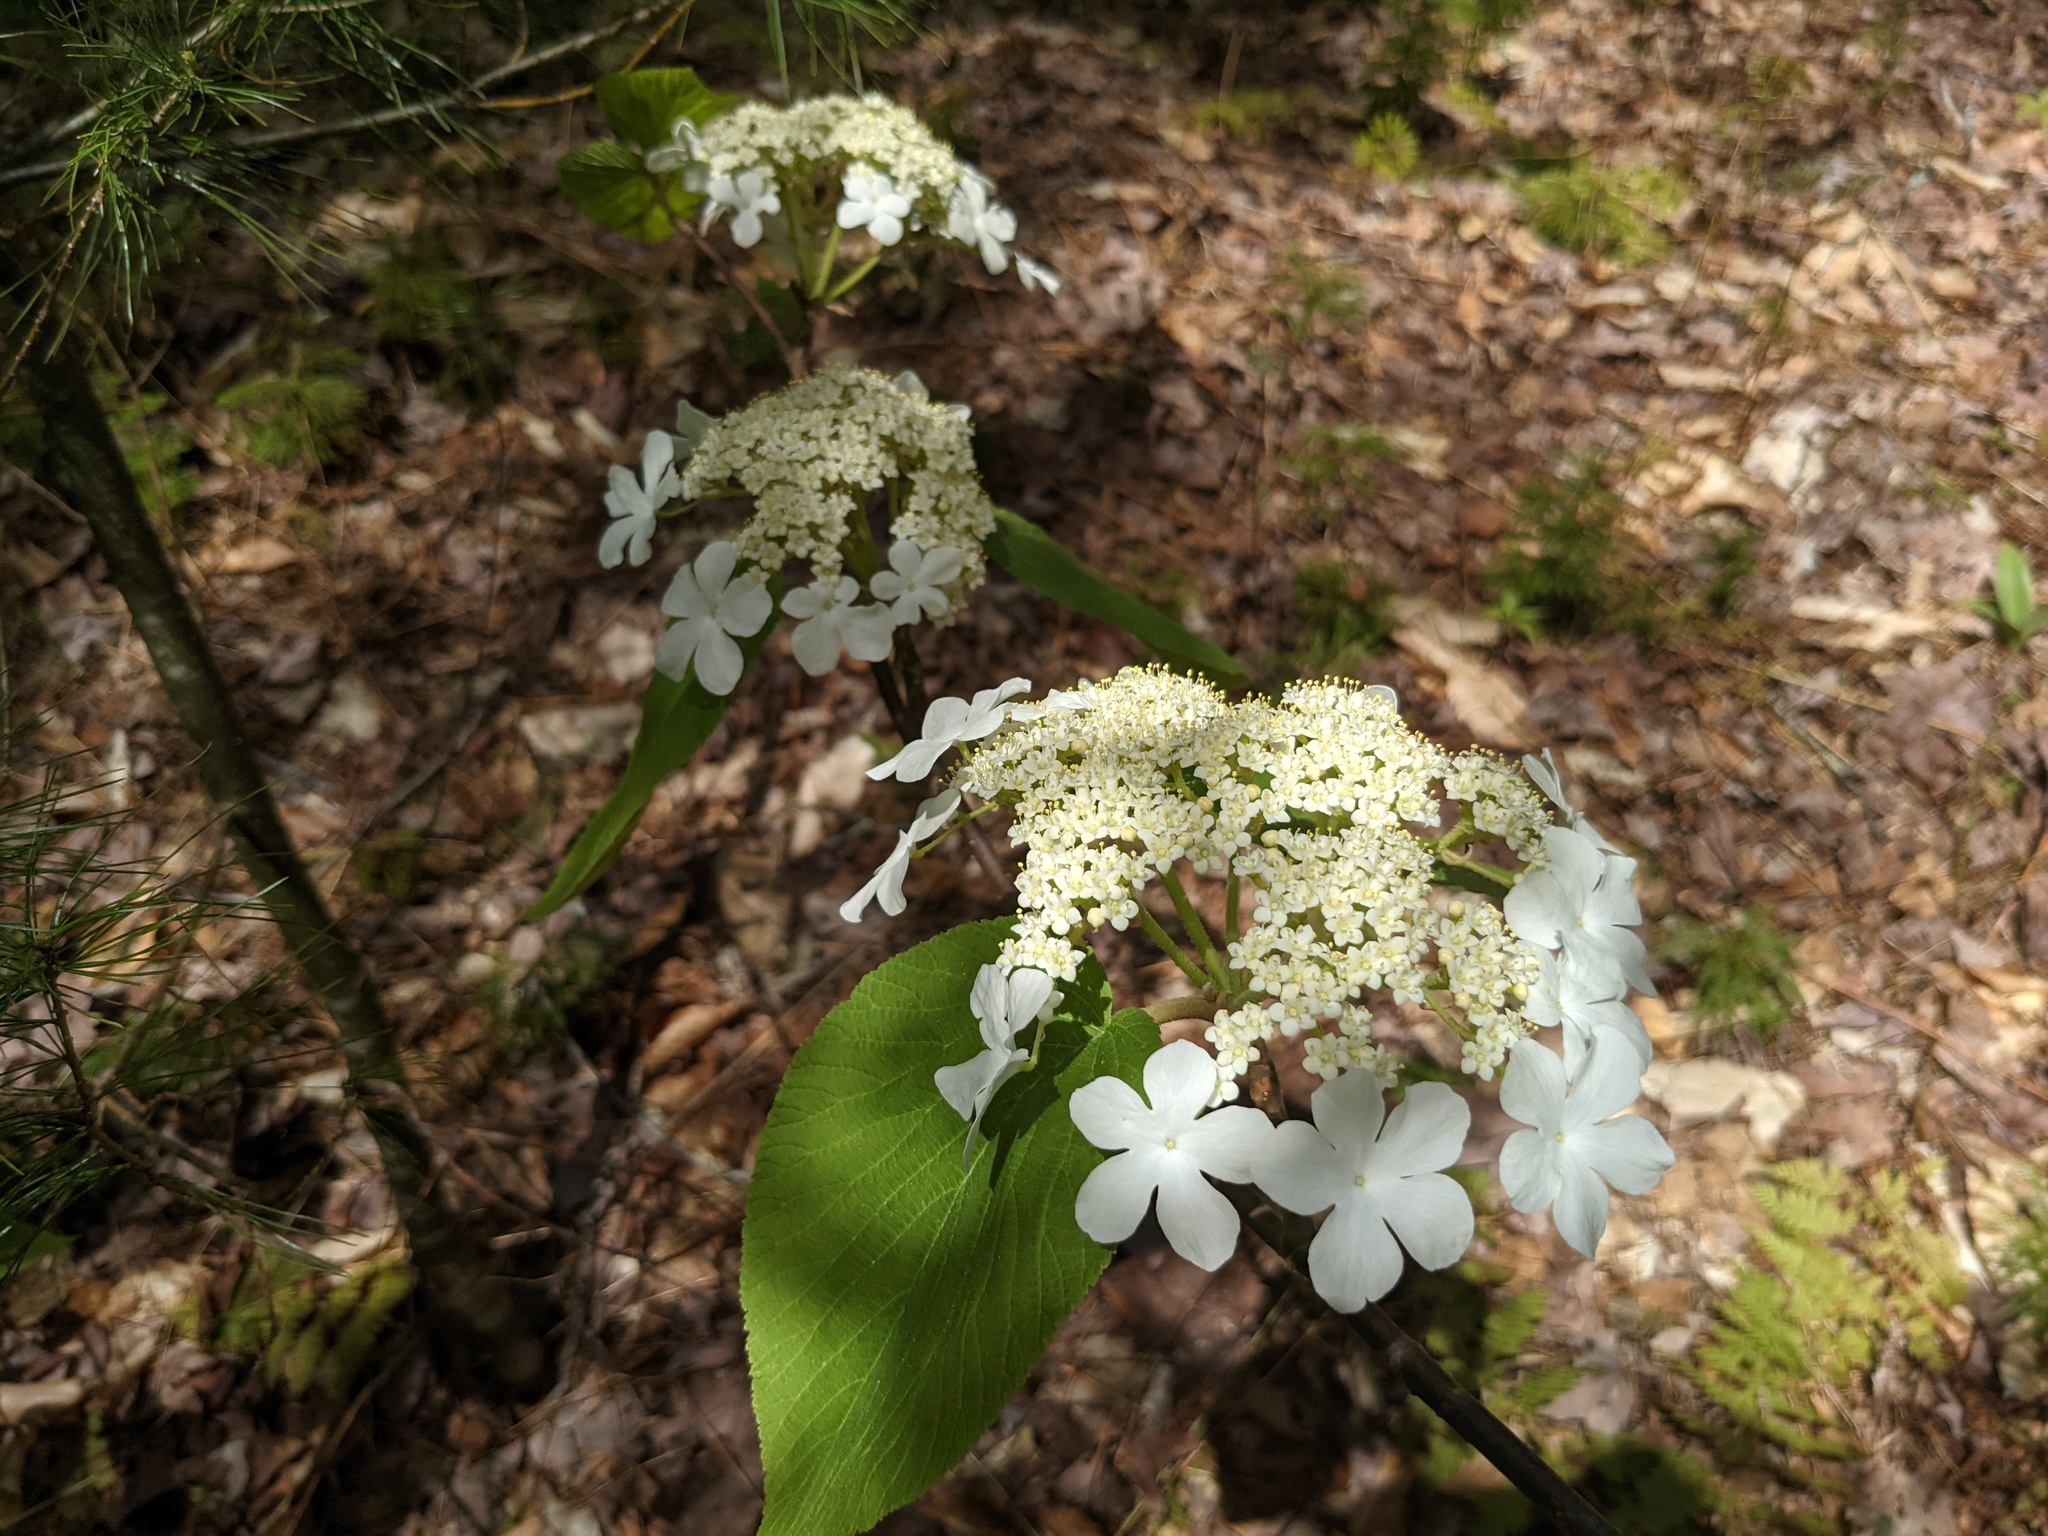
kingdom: Plantae
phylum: Tracheophyta
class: Magnoliopsida
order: Dipsacales
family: Viburnaceae
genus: Viburnum
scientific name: Viburnum lantanoides
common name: Hobblebush
